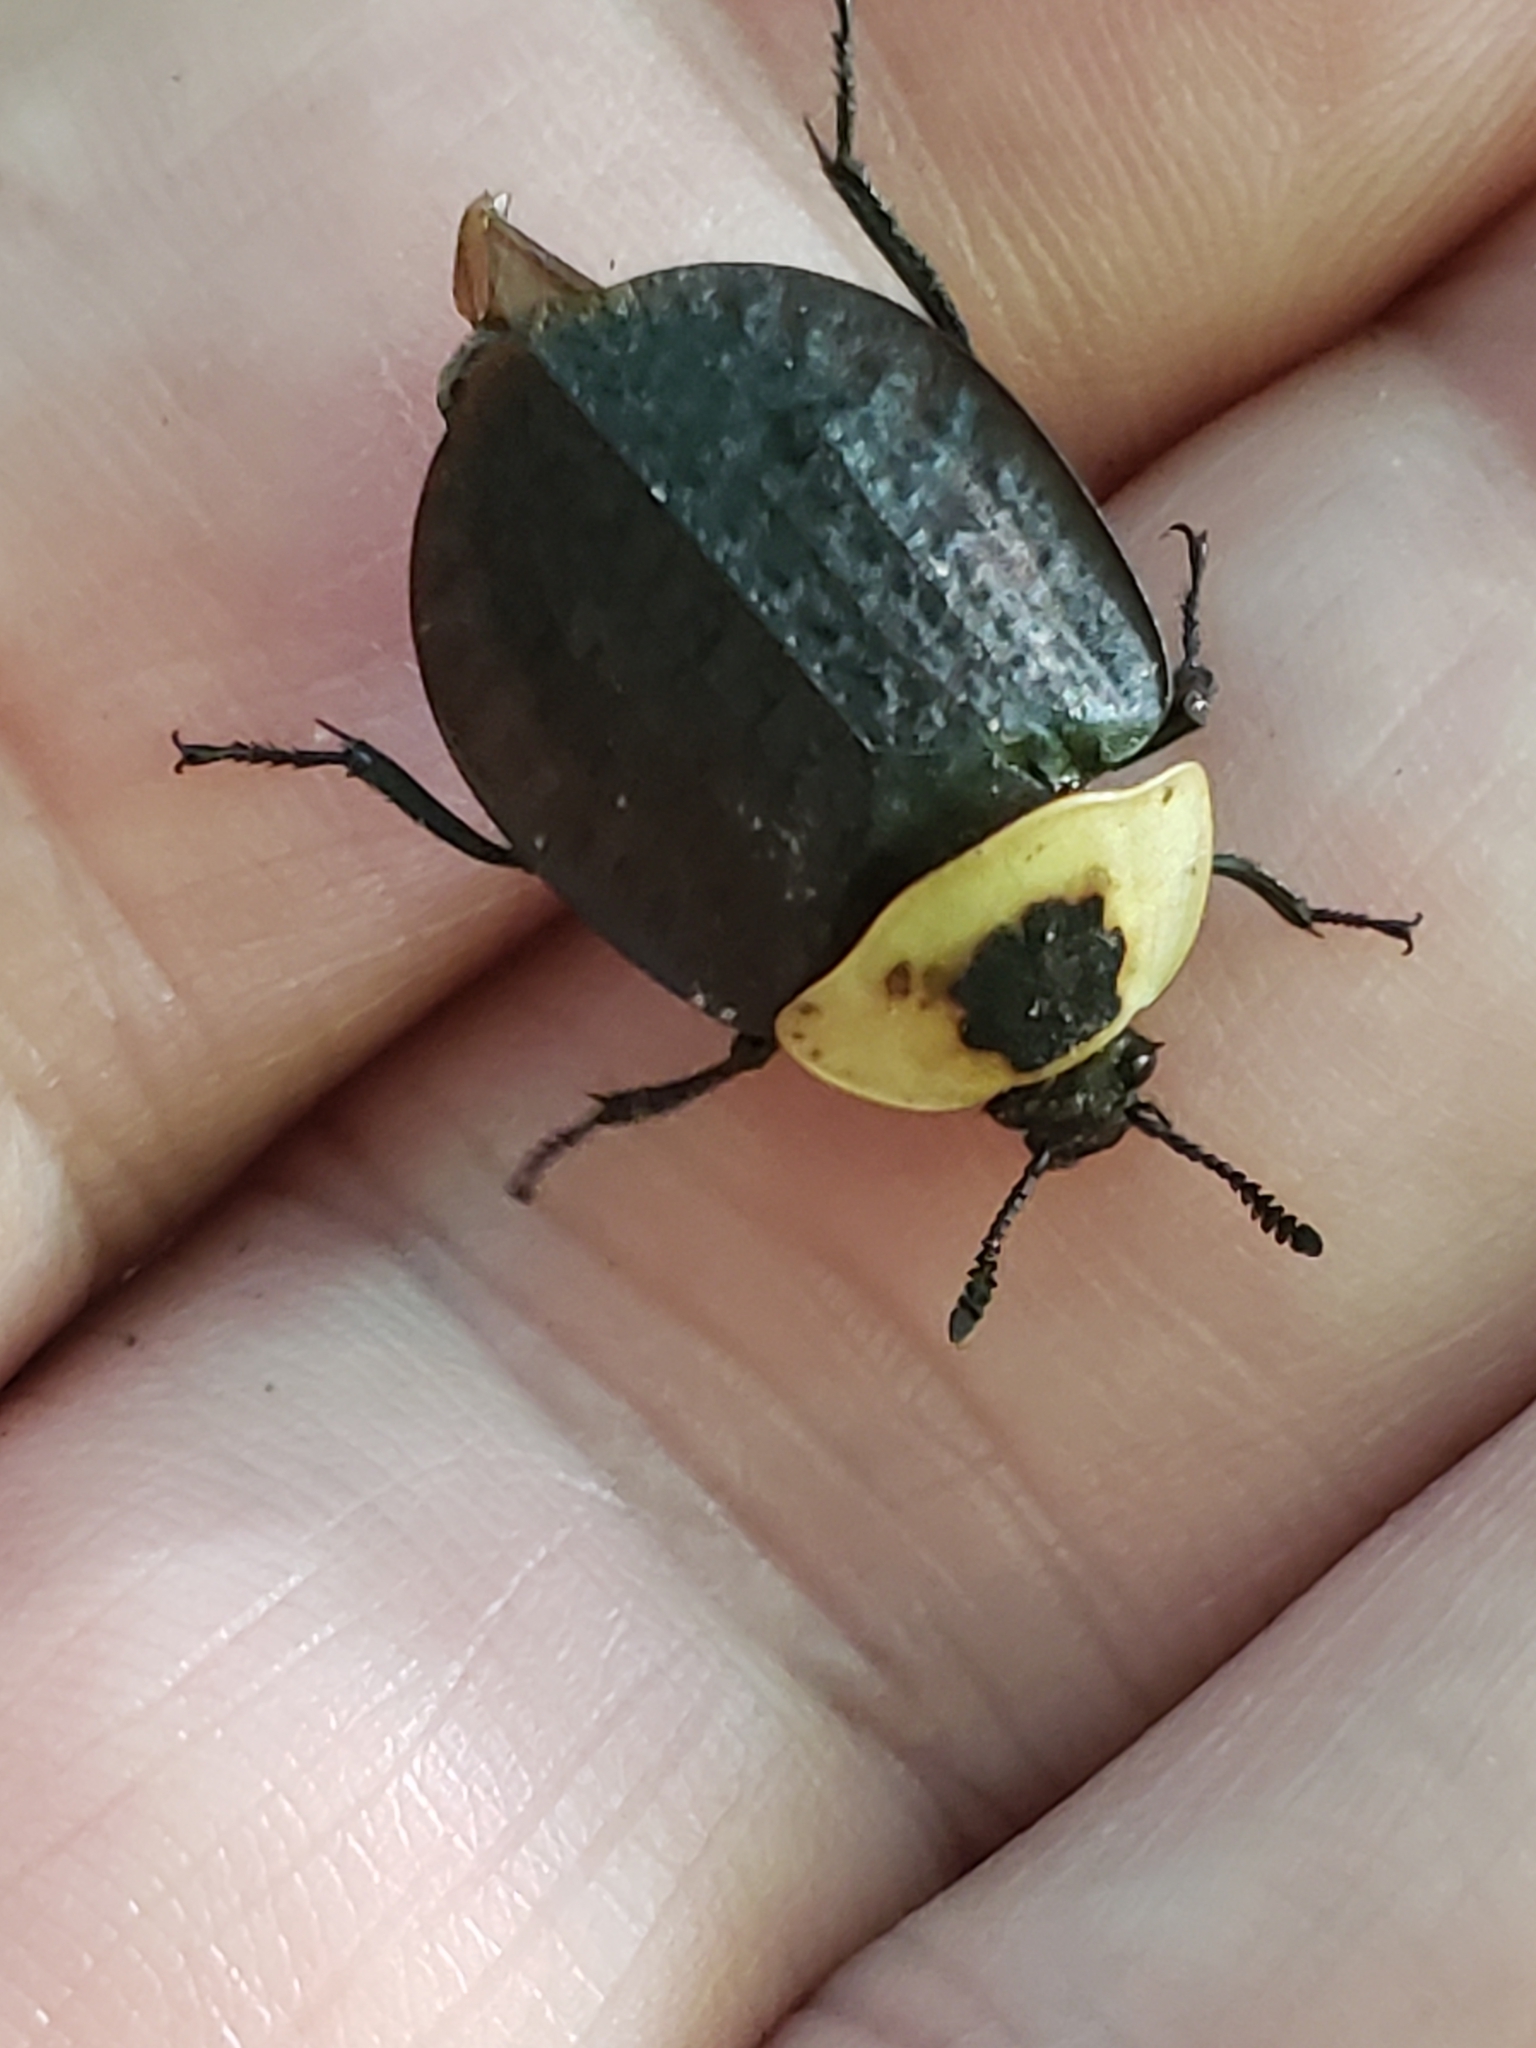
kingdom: Animalia
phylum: Arthropoda
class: Insecta
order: Coleoptera
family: Staphylinidae
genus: Necrophila
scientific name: Necrophila americana
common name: American carrion beetle
